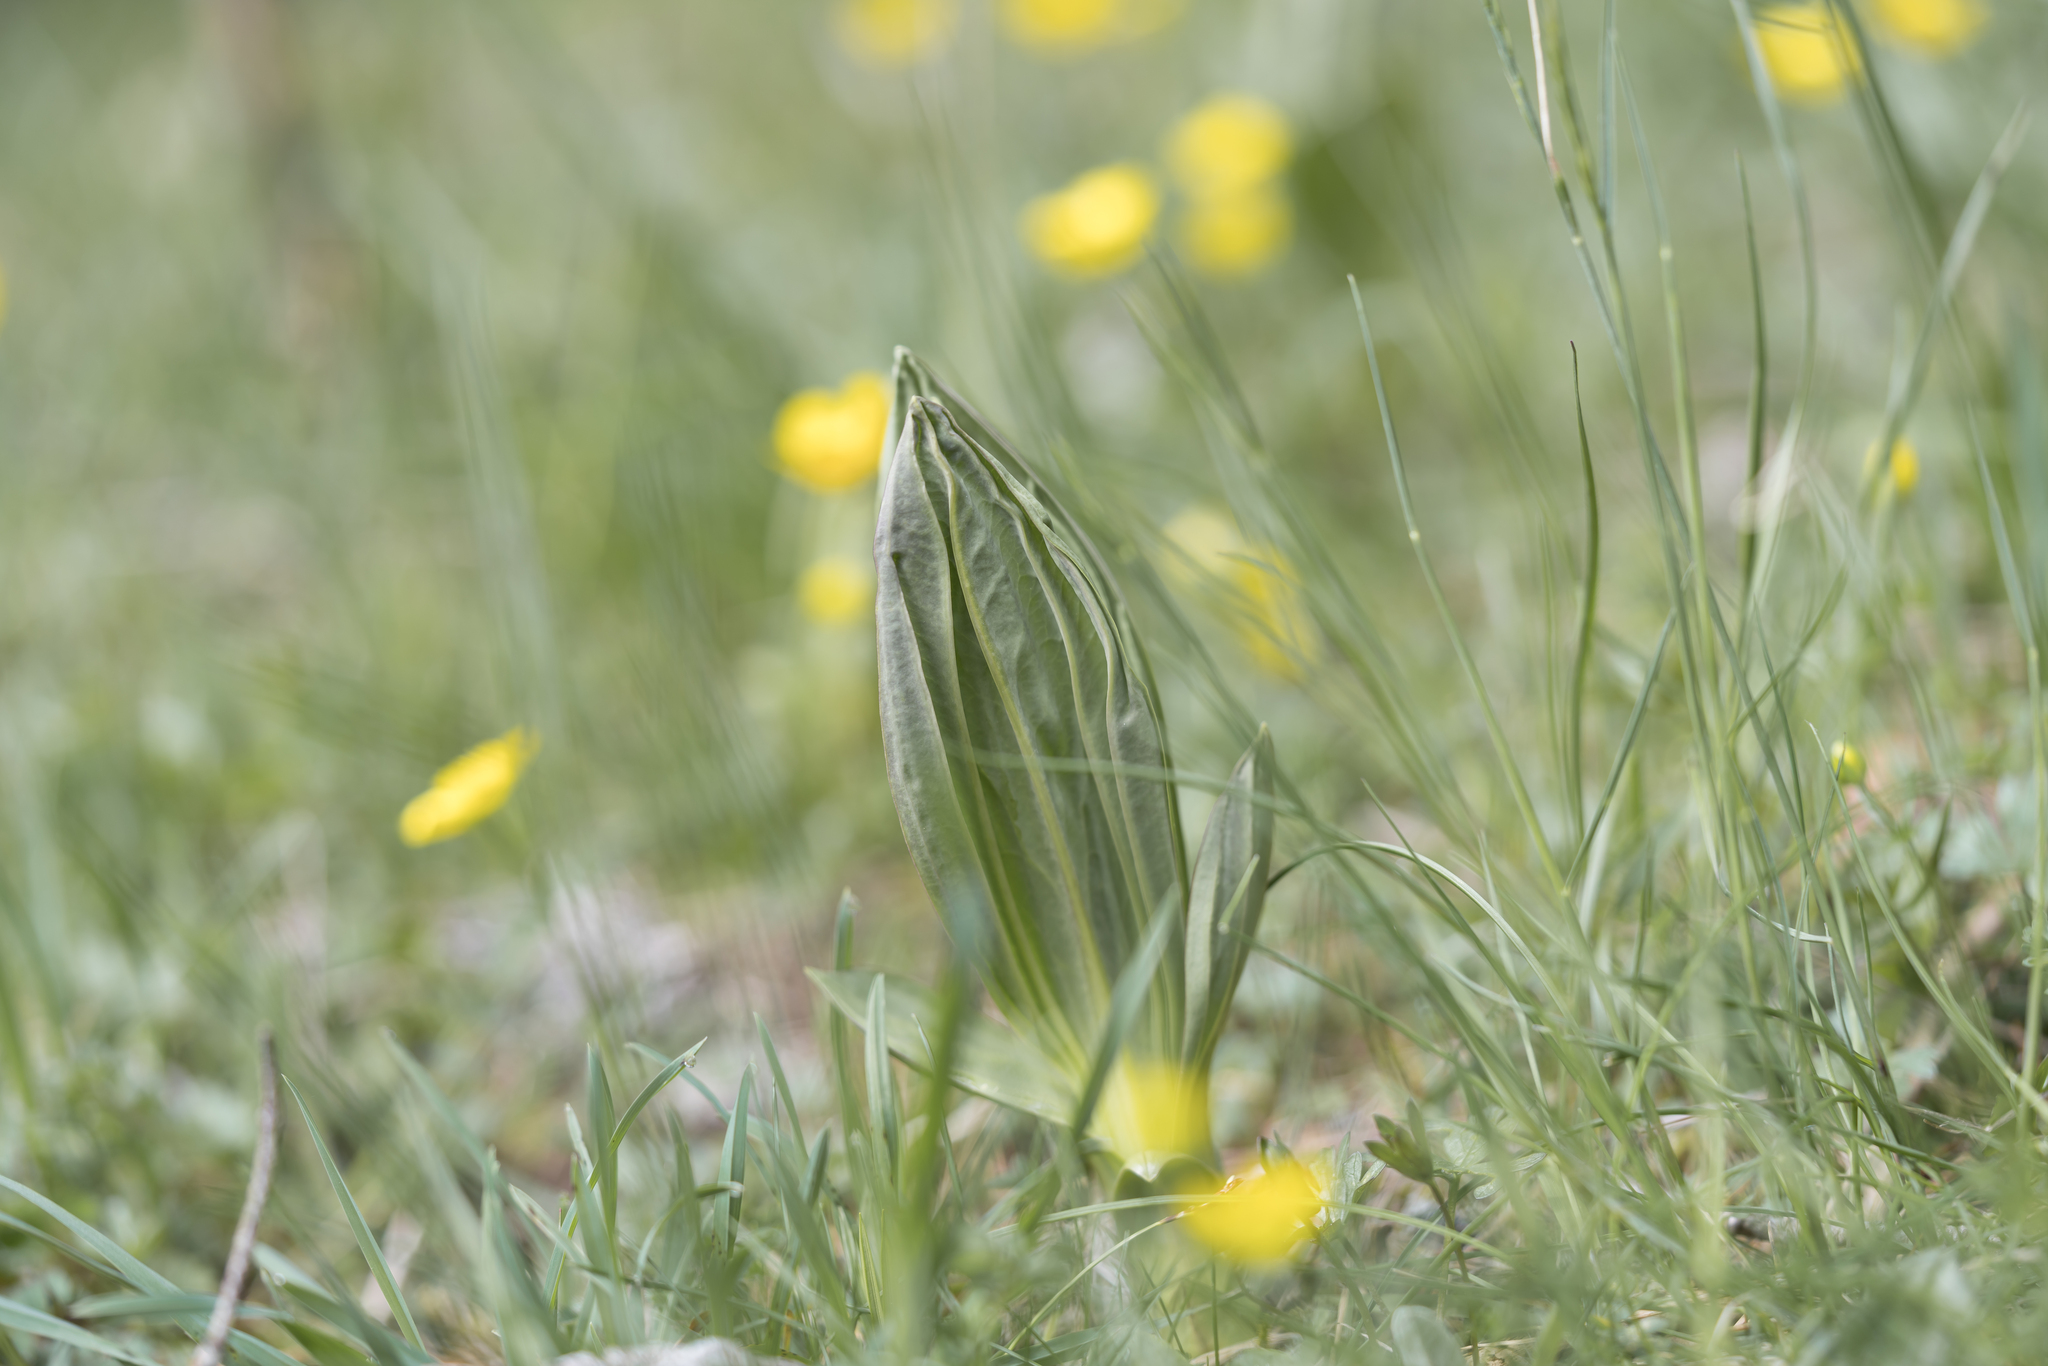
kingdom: Plantae
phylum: Tracheophyta
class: Magnoliopsida
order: Gentianales
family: Gentianaceae
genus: Gentiana
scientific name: Gentiana lutea
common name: Great yellow gentian
